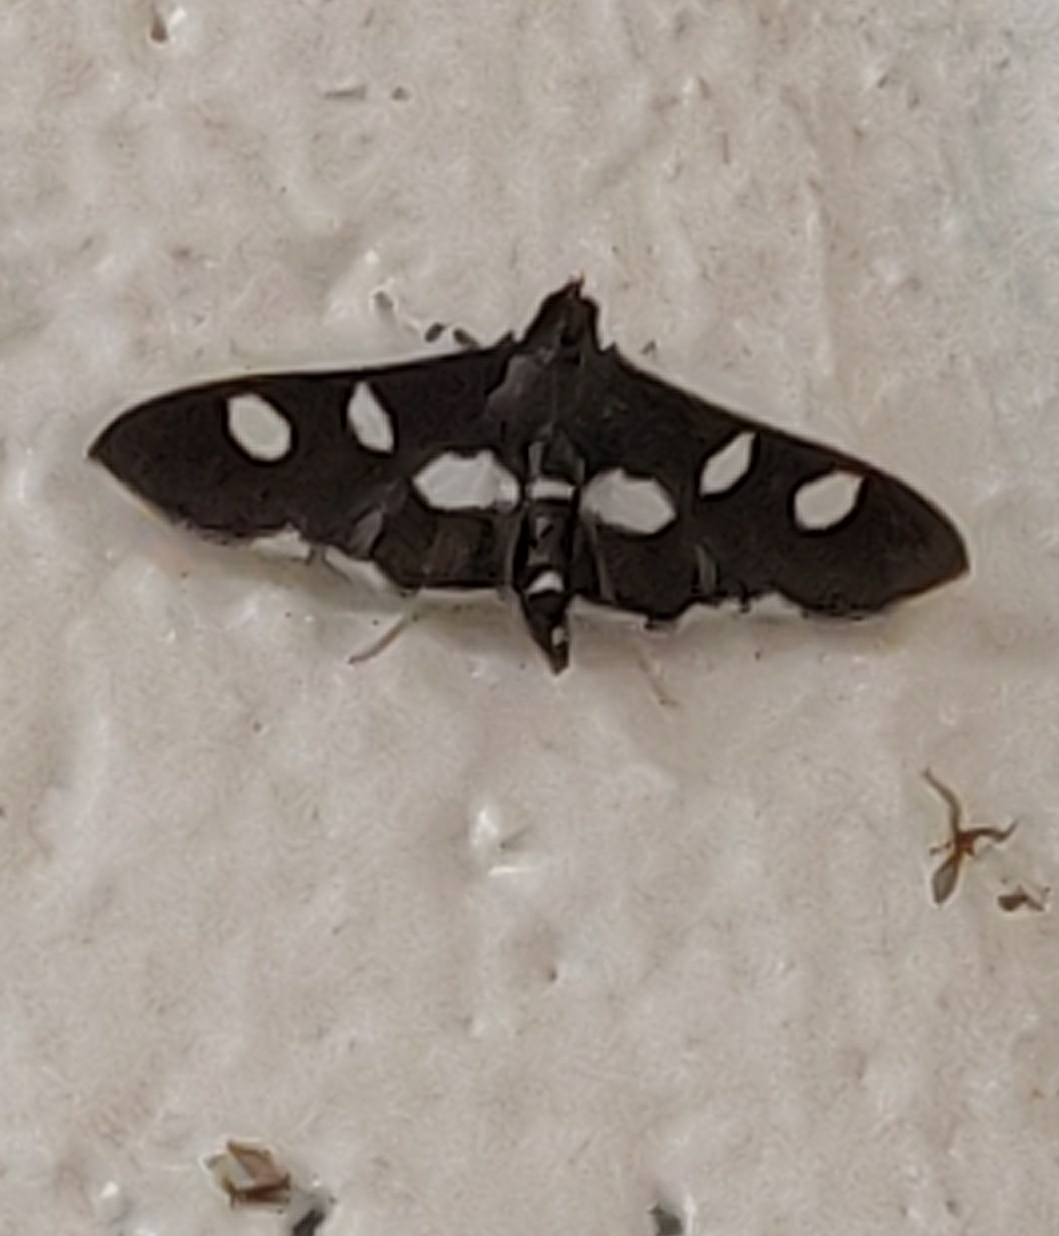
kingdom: Animalia
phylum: Arthropoda
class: Insecta
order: Lepidoptera
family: Crambidae
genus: Desmia
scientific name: Desmia funeralis
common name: Grape leaf folder moth
